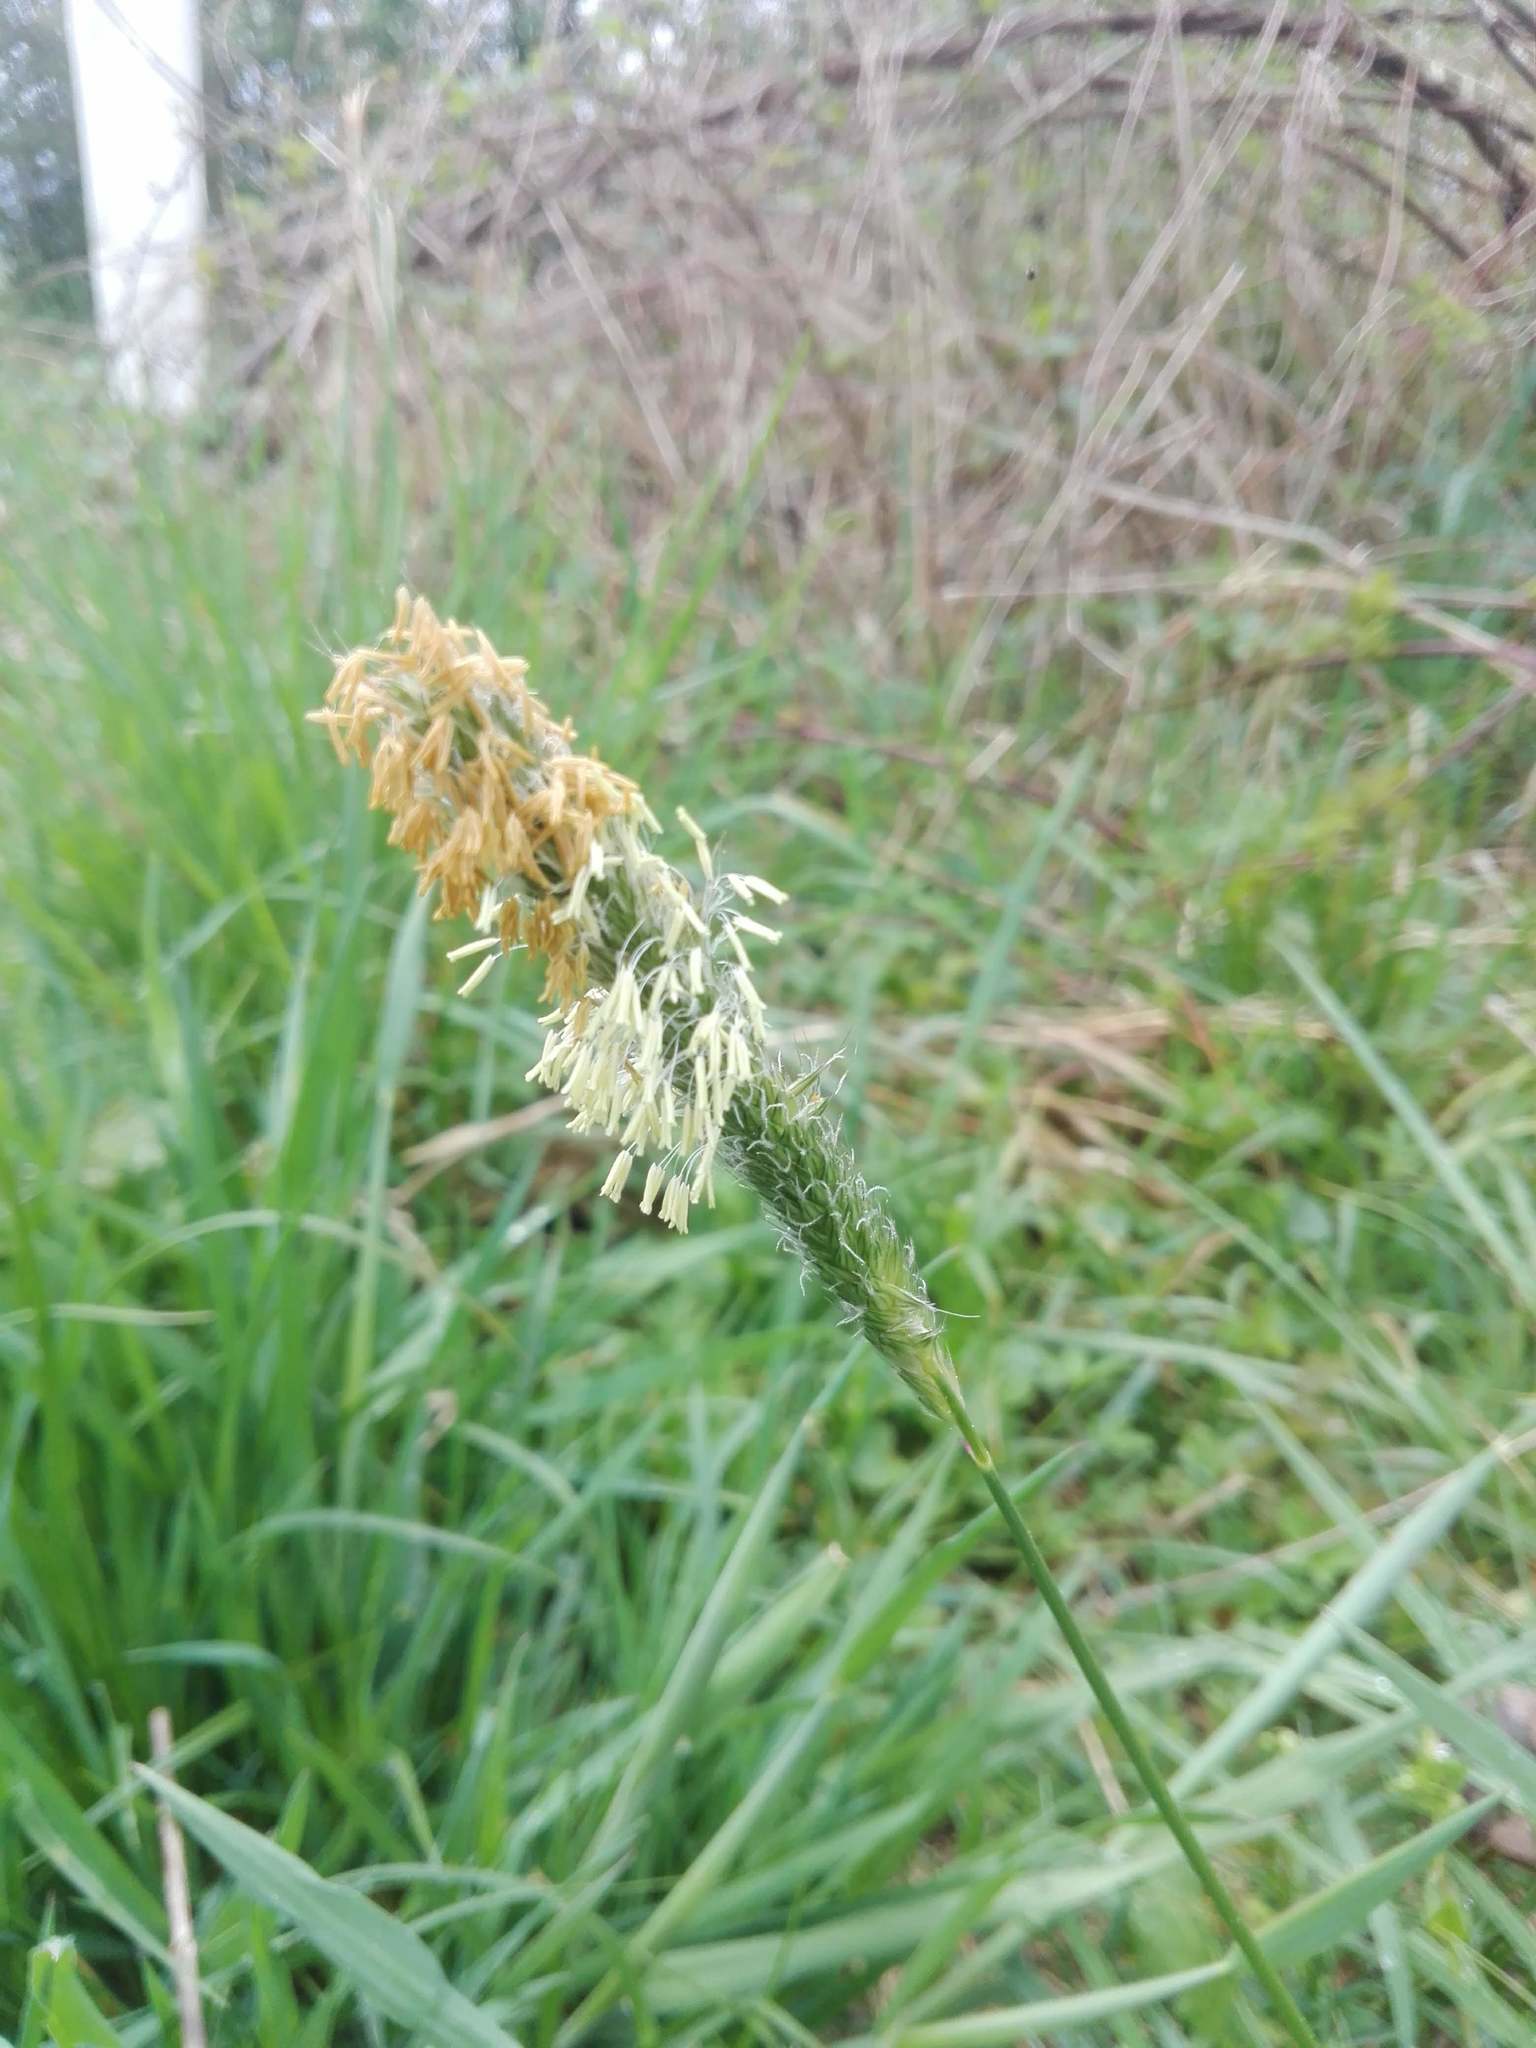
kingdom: Plantae
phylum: Tracheophyta
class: Liliopsida
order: Poales
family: Poaceae
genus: Alopecurus
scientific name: Alopecurus pratensis
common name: Meadow foxtail
